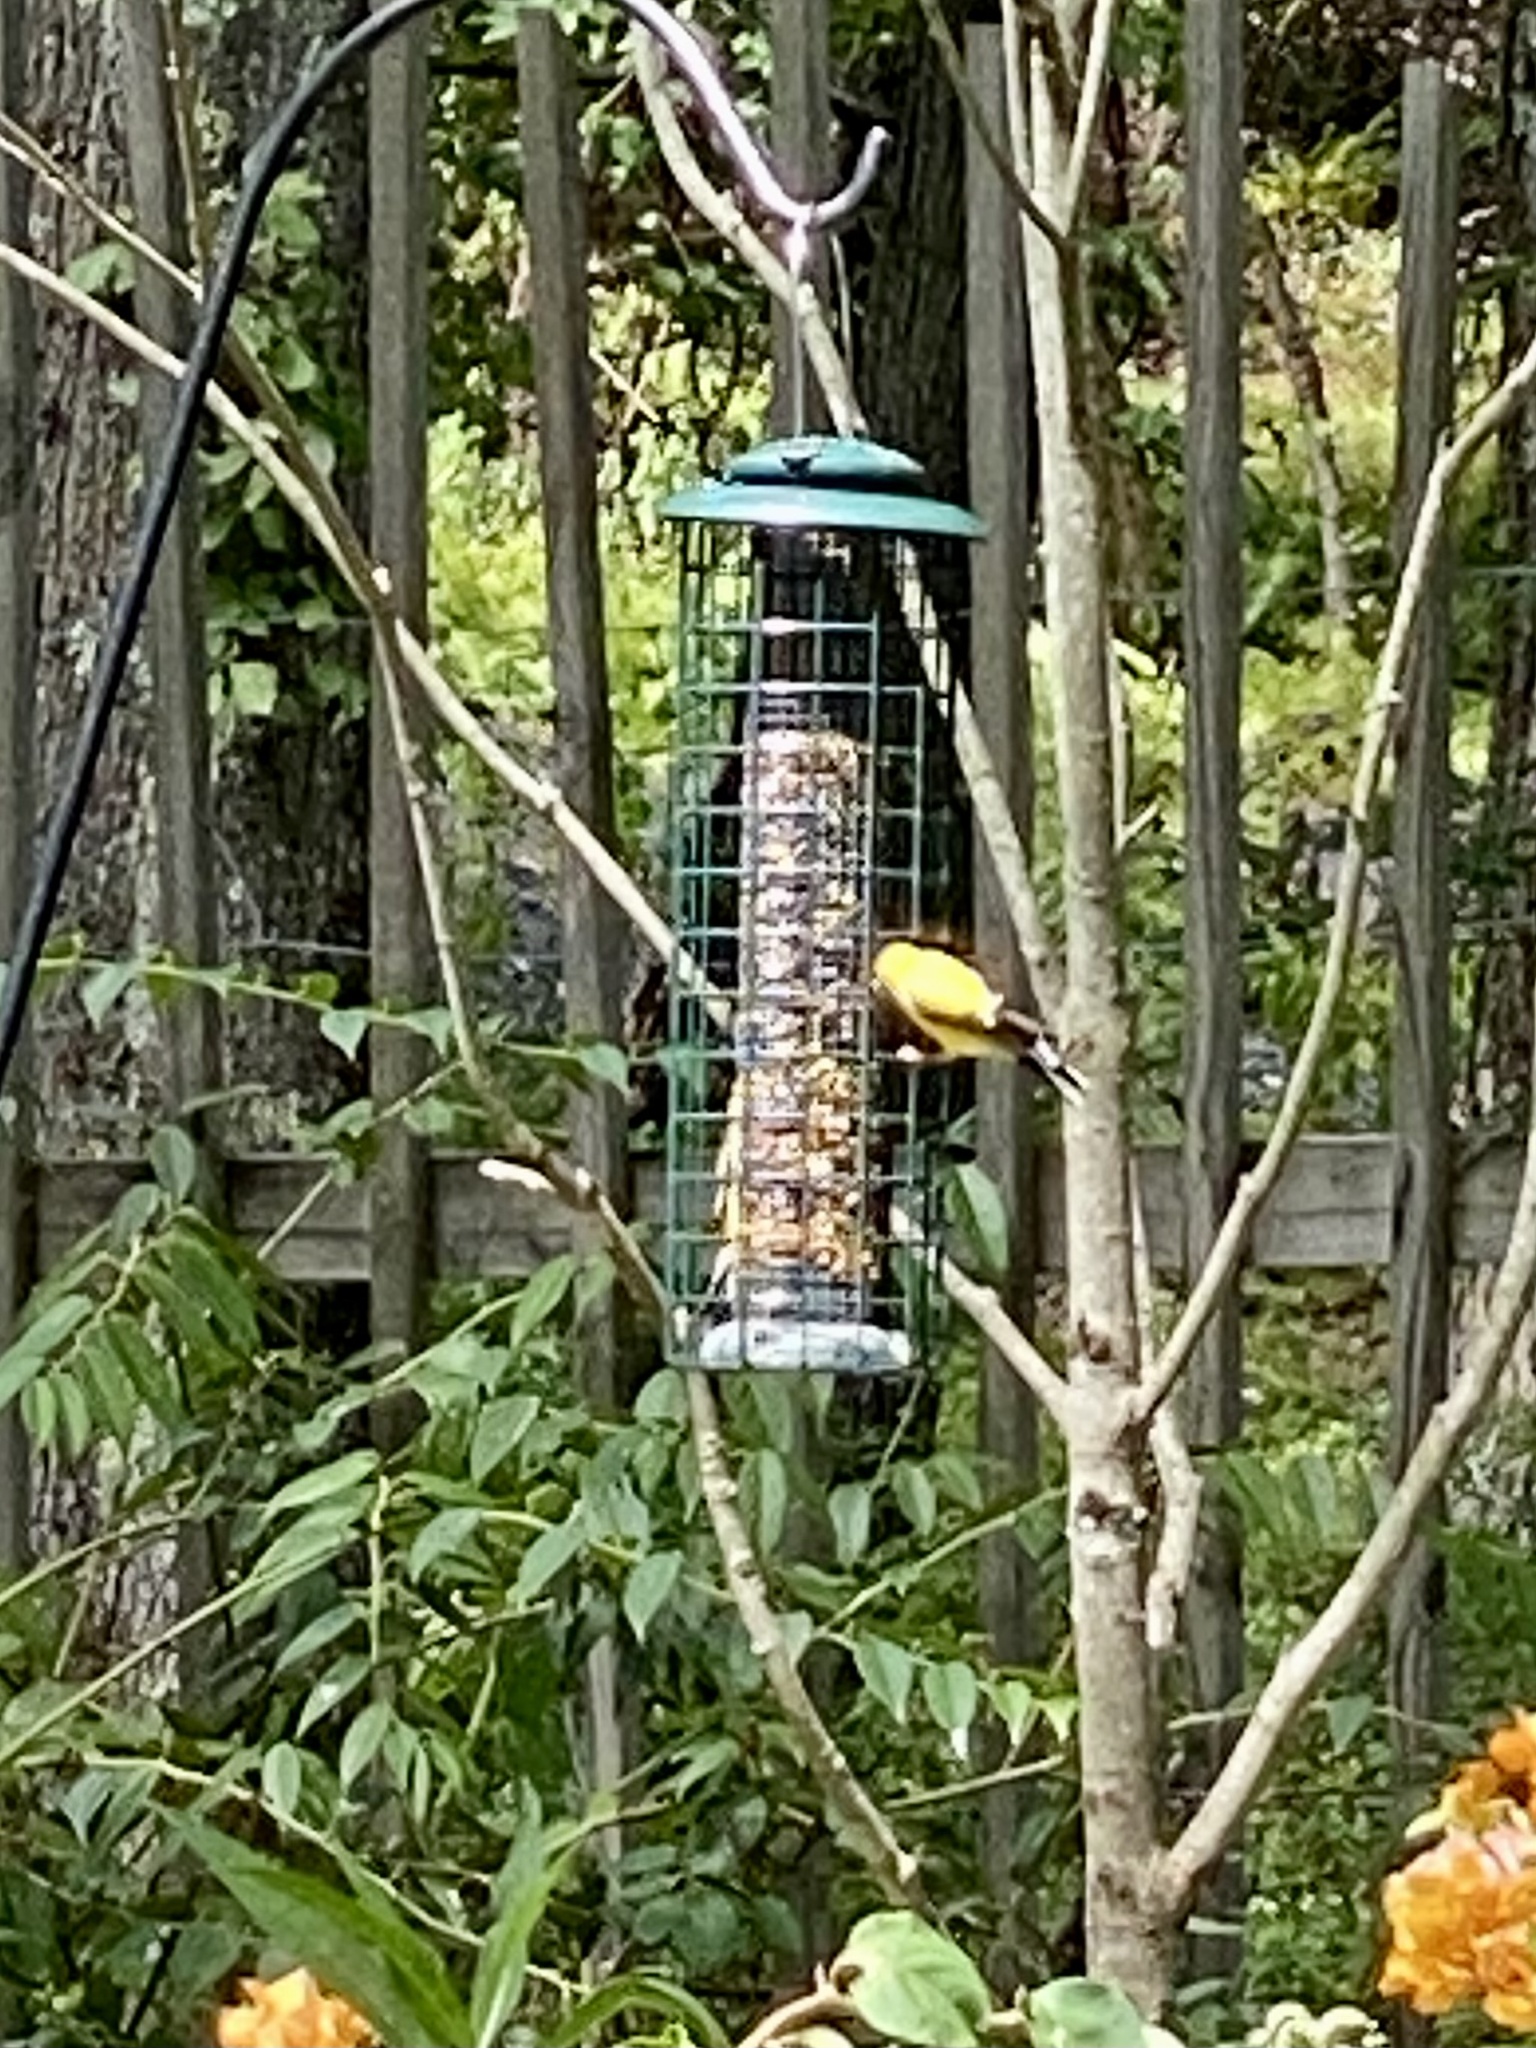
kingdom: Animalia
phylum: Chordata
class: Aves
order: Passeriformes
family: Fringillidae
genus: Spinus
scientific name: Spinus tristis
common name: American goldfinch
